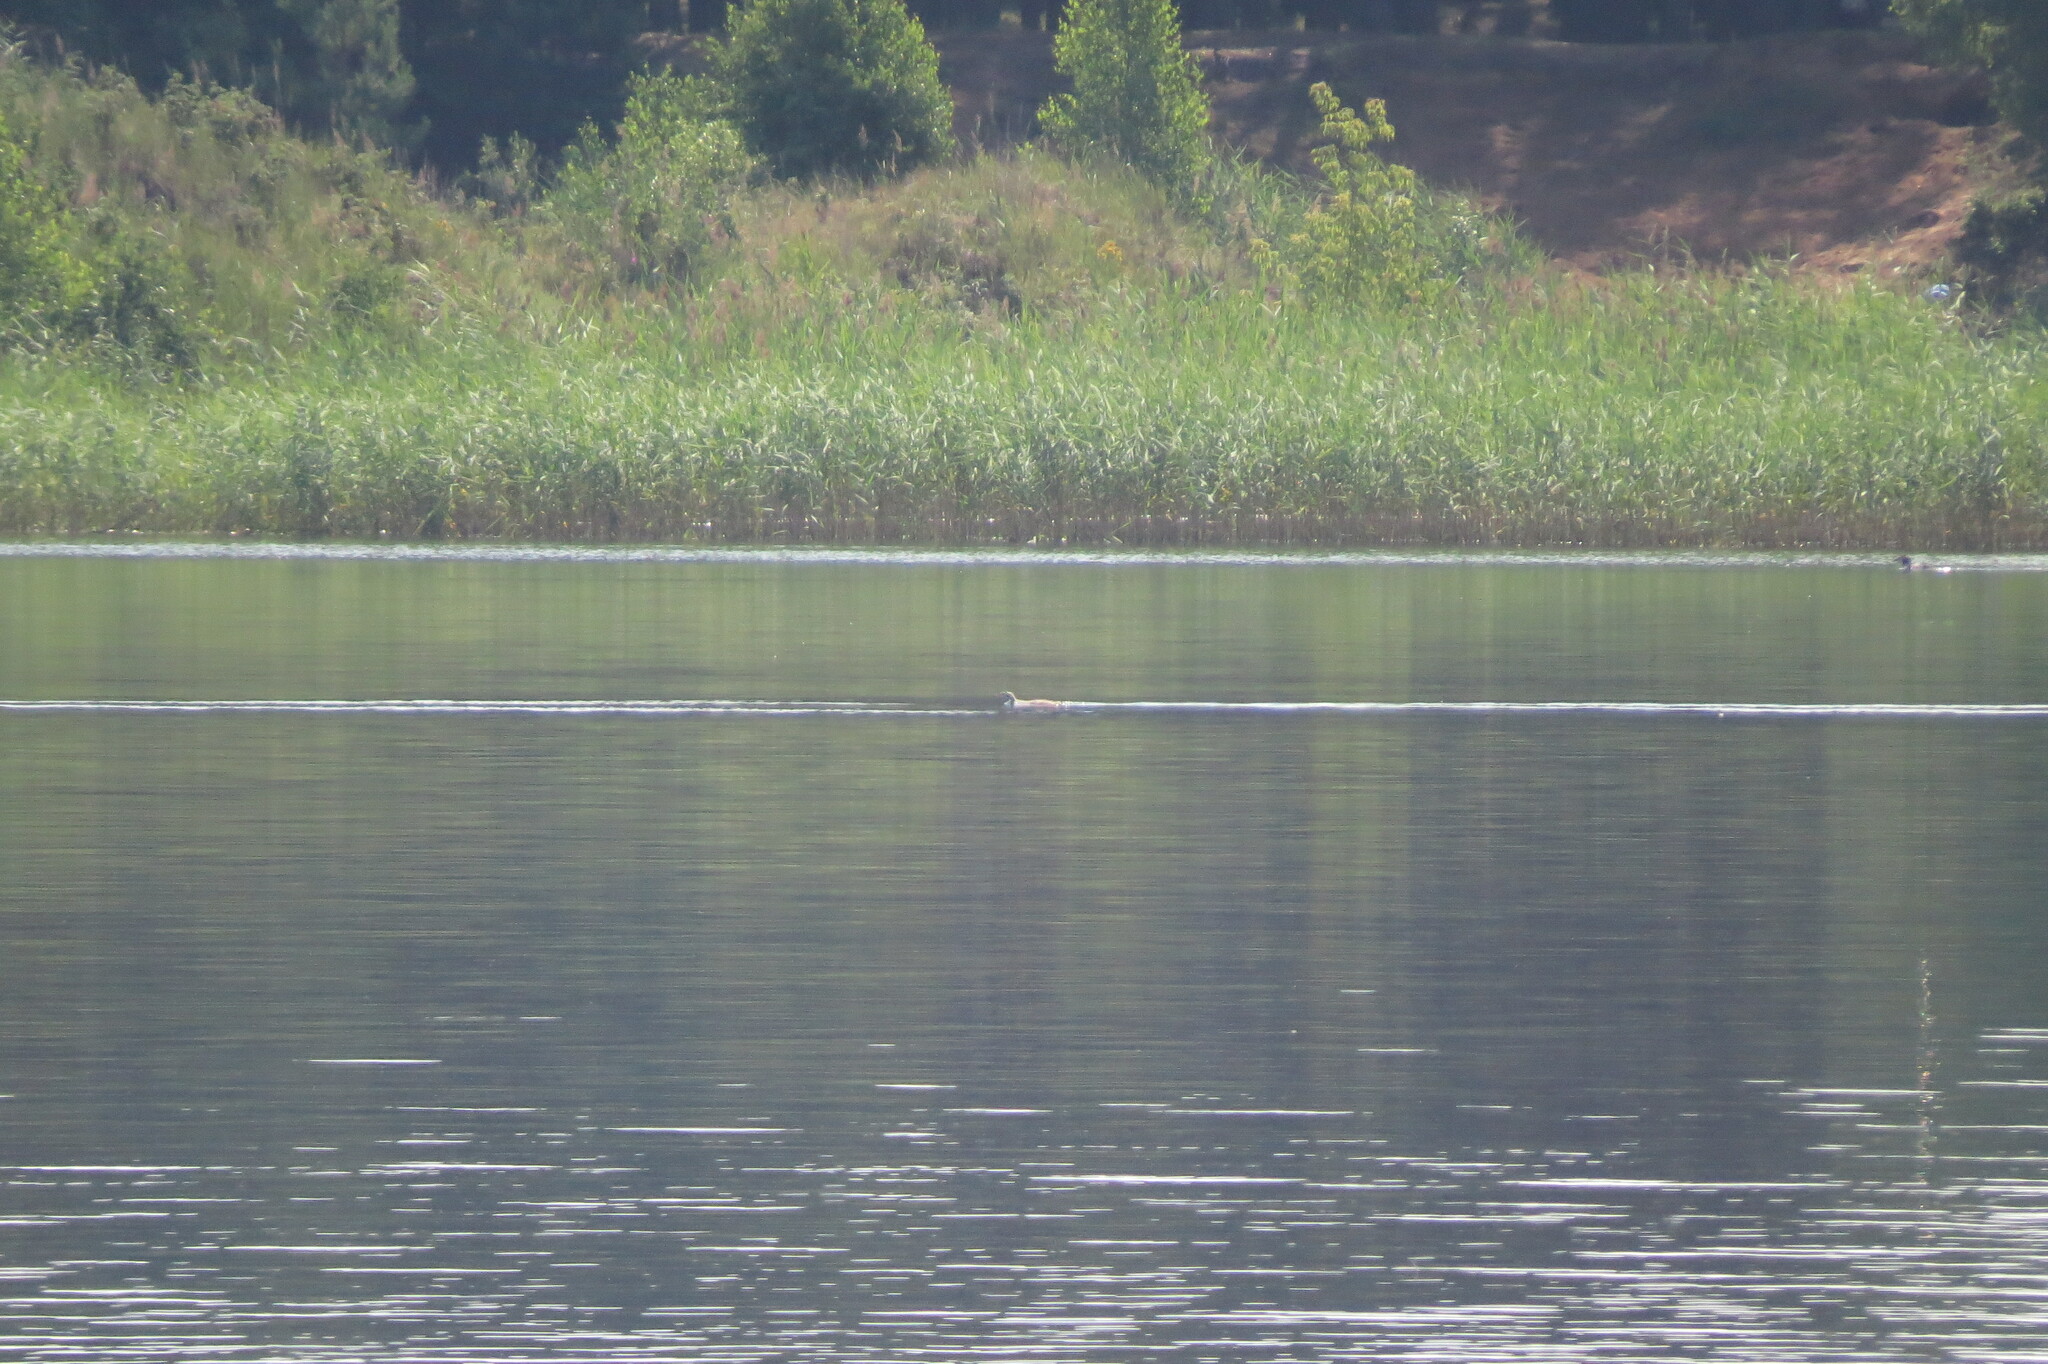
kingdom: Animalia
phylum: Chordata
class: Aves
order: Podicipediformes
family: Podicipedidae
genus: Podiceps
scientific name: Podiceps cristatus
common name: Great crested grebe
